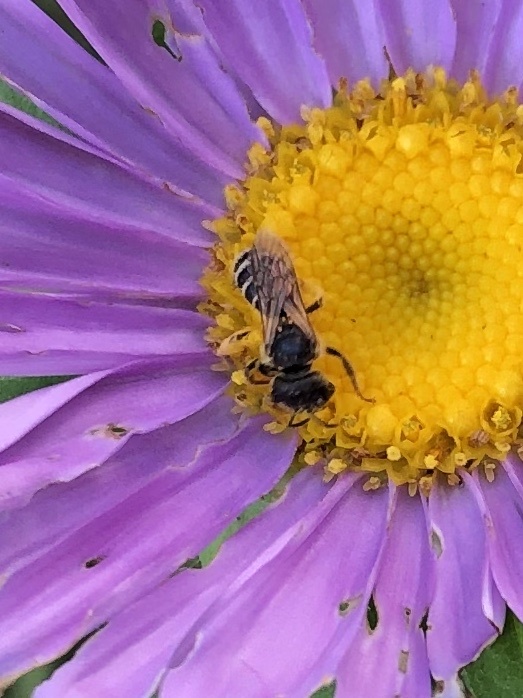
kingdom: Animalia
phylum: Arthropoda
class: Insecta
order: Hymenoptera
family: Halictidae
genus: Halictus
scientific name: Halictus ligatus
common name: Ligated furrow bee
